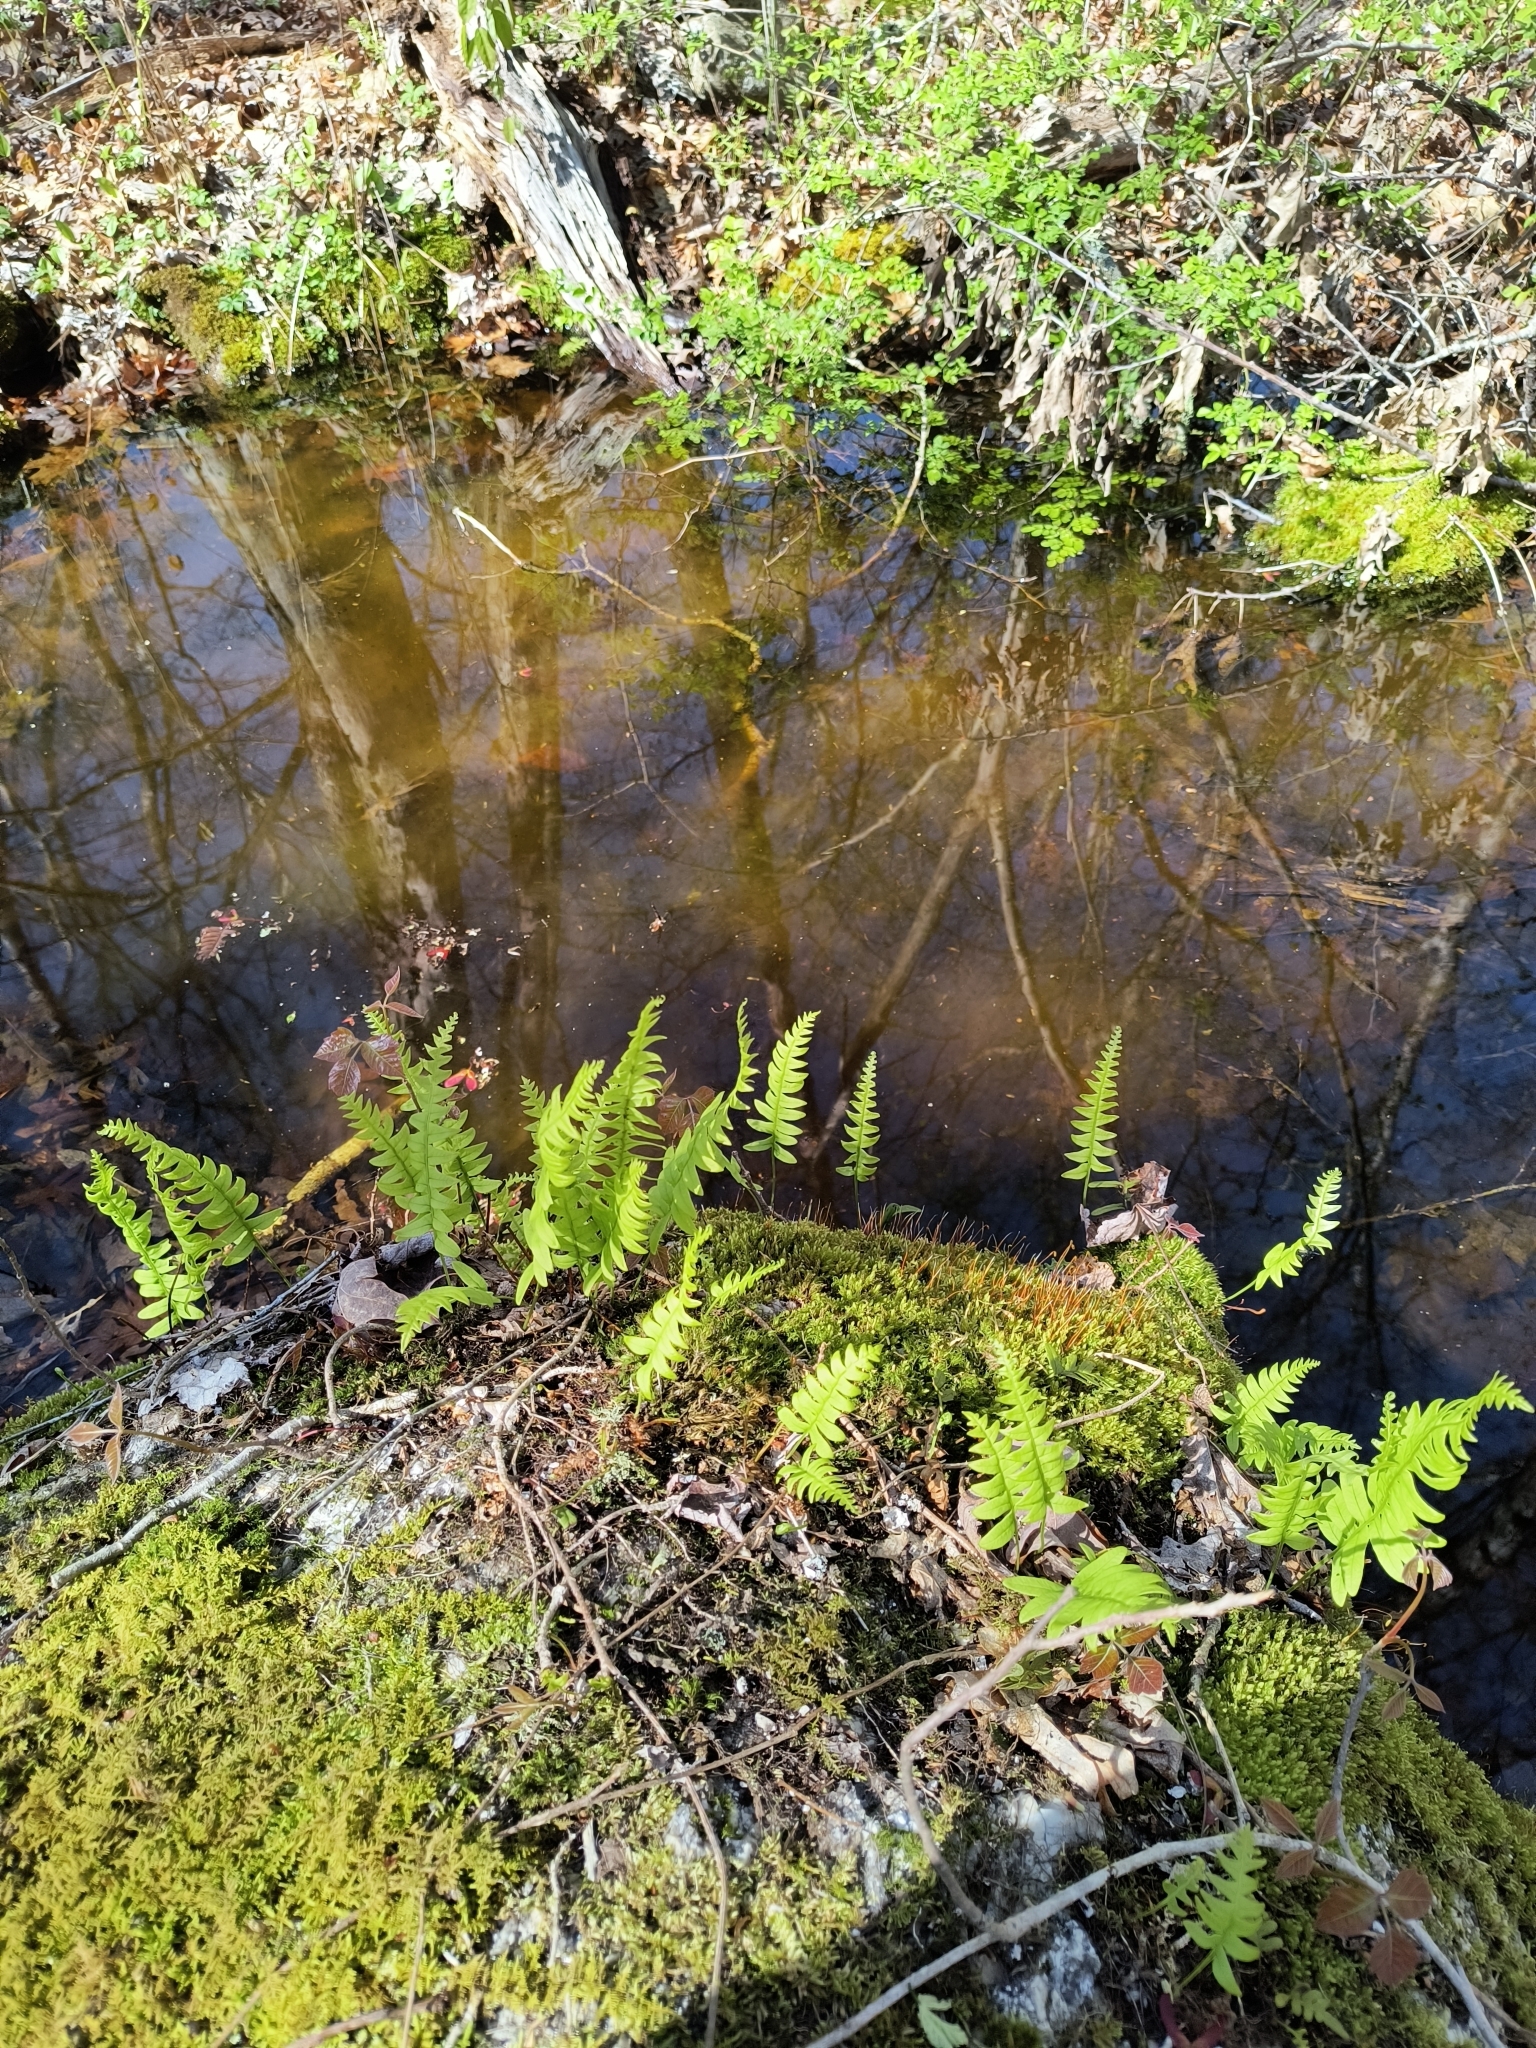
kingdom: Plantae
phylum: Tracheophyta
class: Polypodiopsida
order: Polypodiales
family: Polypodiaceae
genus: Polypodium
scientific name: Polypodium virginianum
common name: American wall fern
